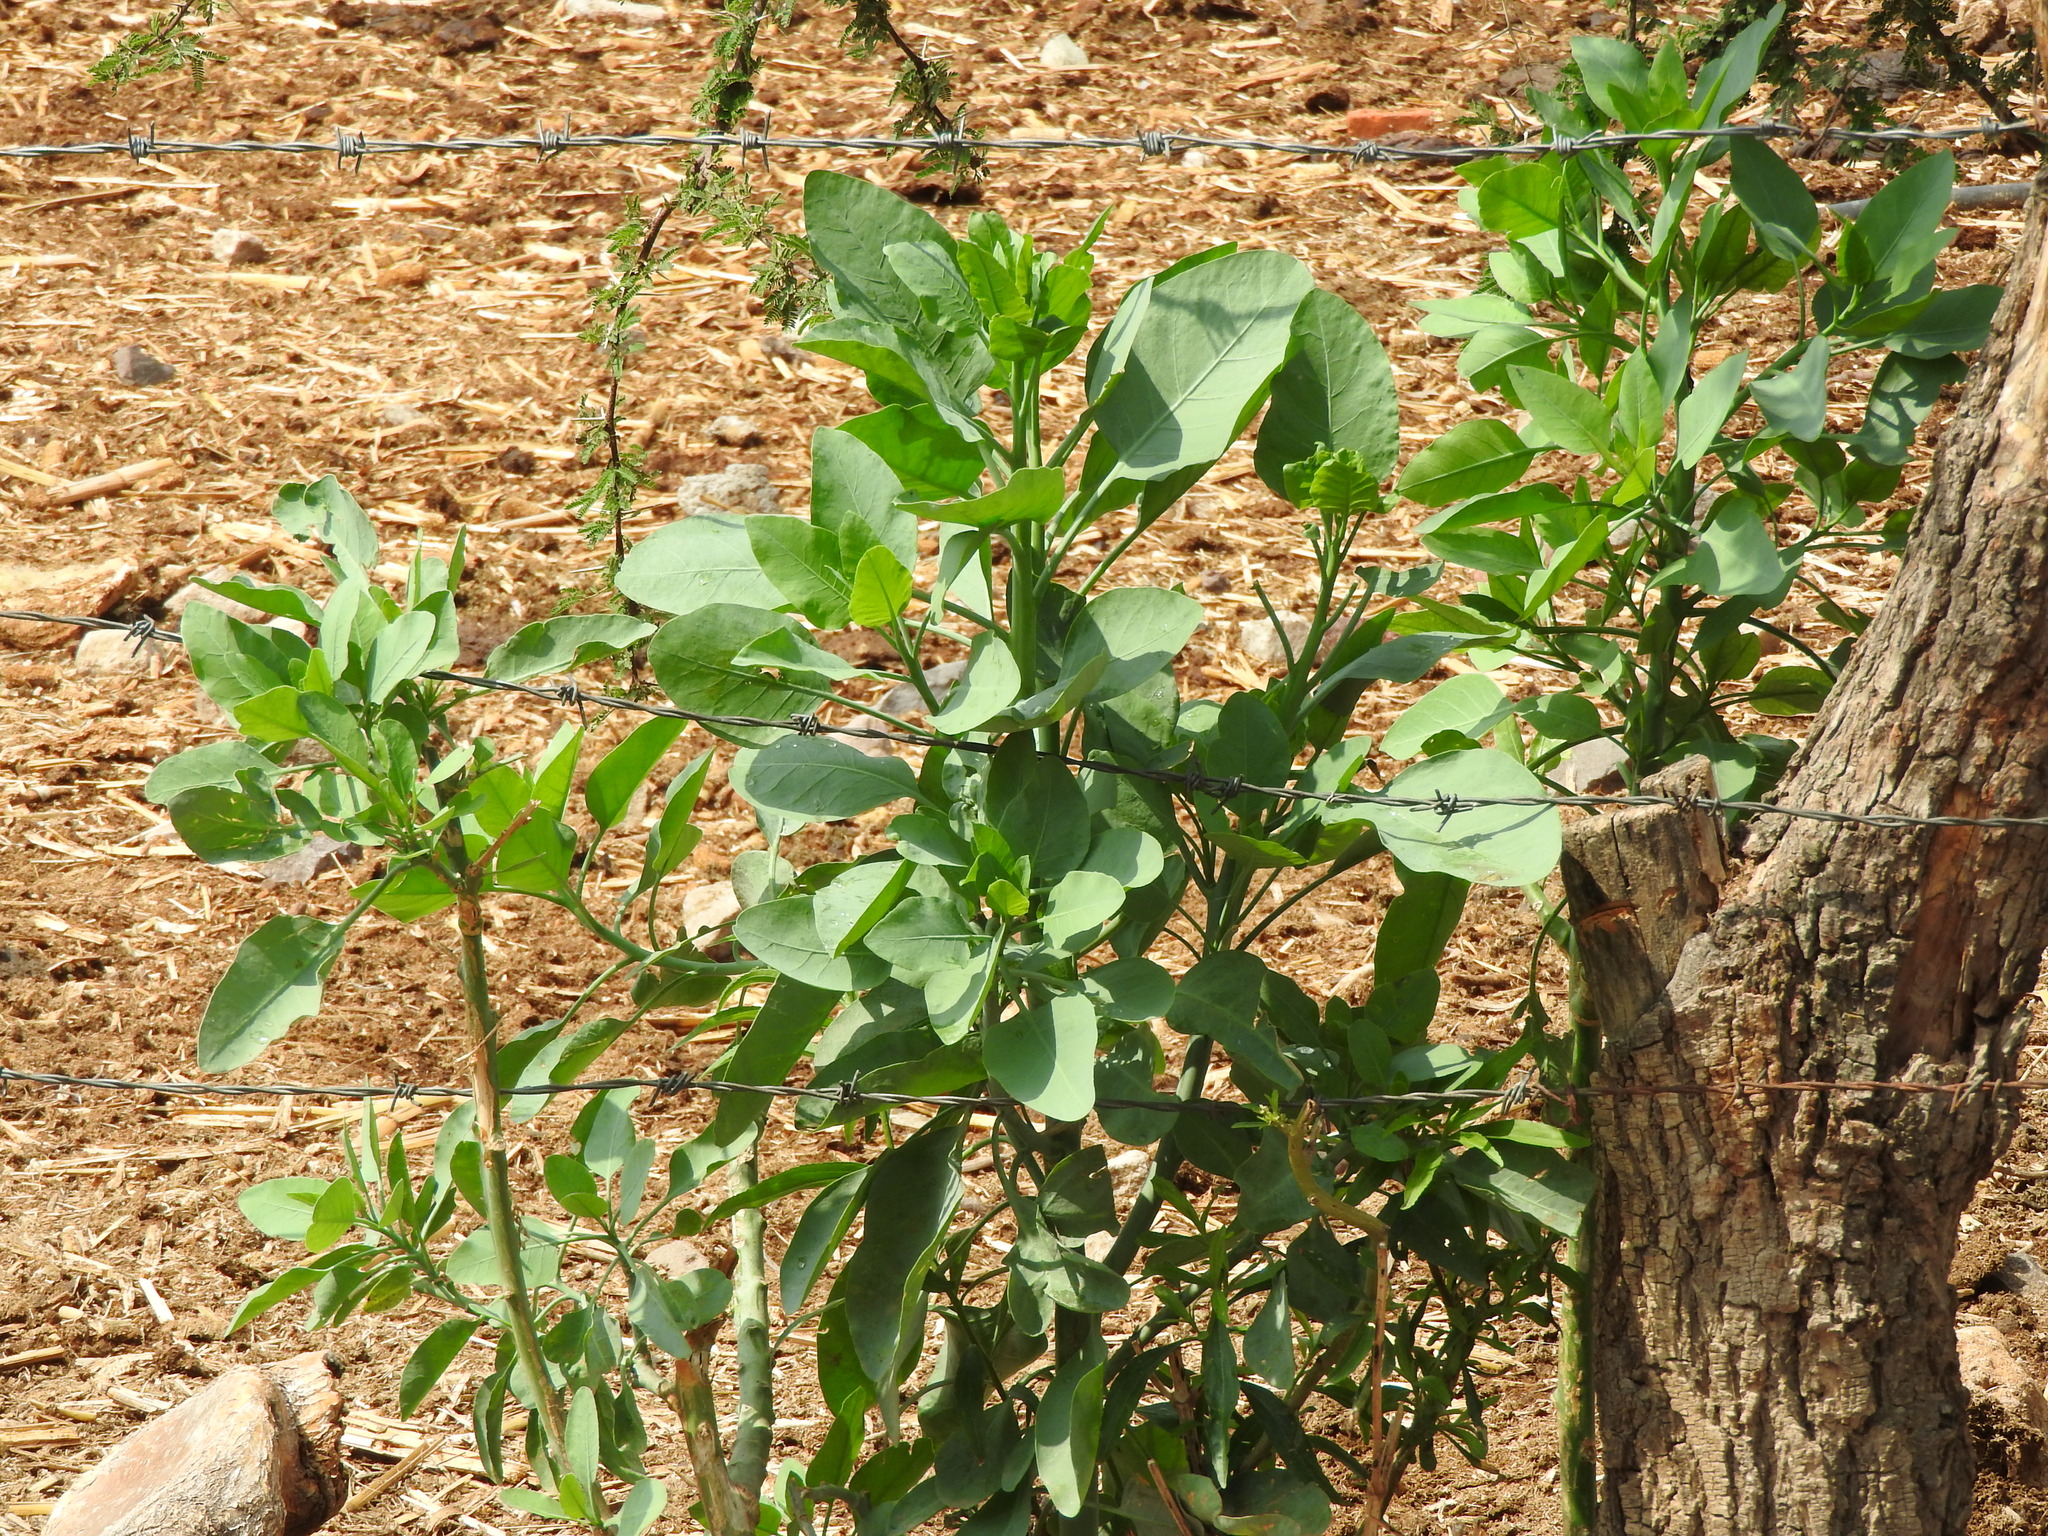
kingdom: Plantae
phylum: Tracheophyta
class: Magnoliopsida
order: Solanales
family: Solanaceae
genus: Nicotiana
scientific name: Nicotiana glauca
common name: Tree tobacco
